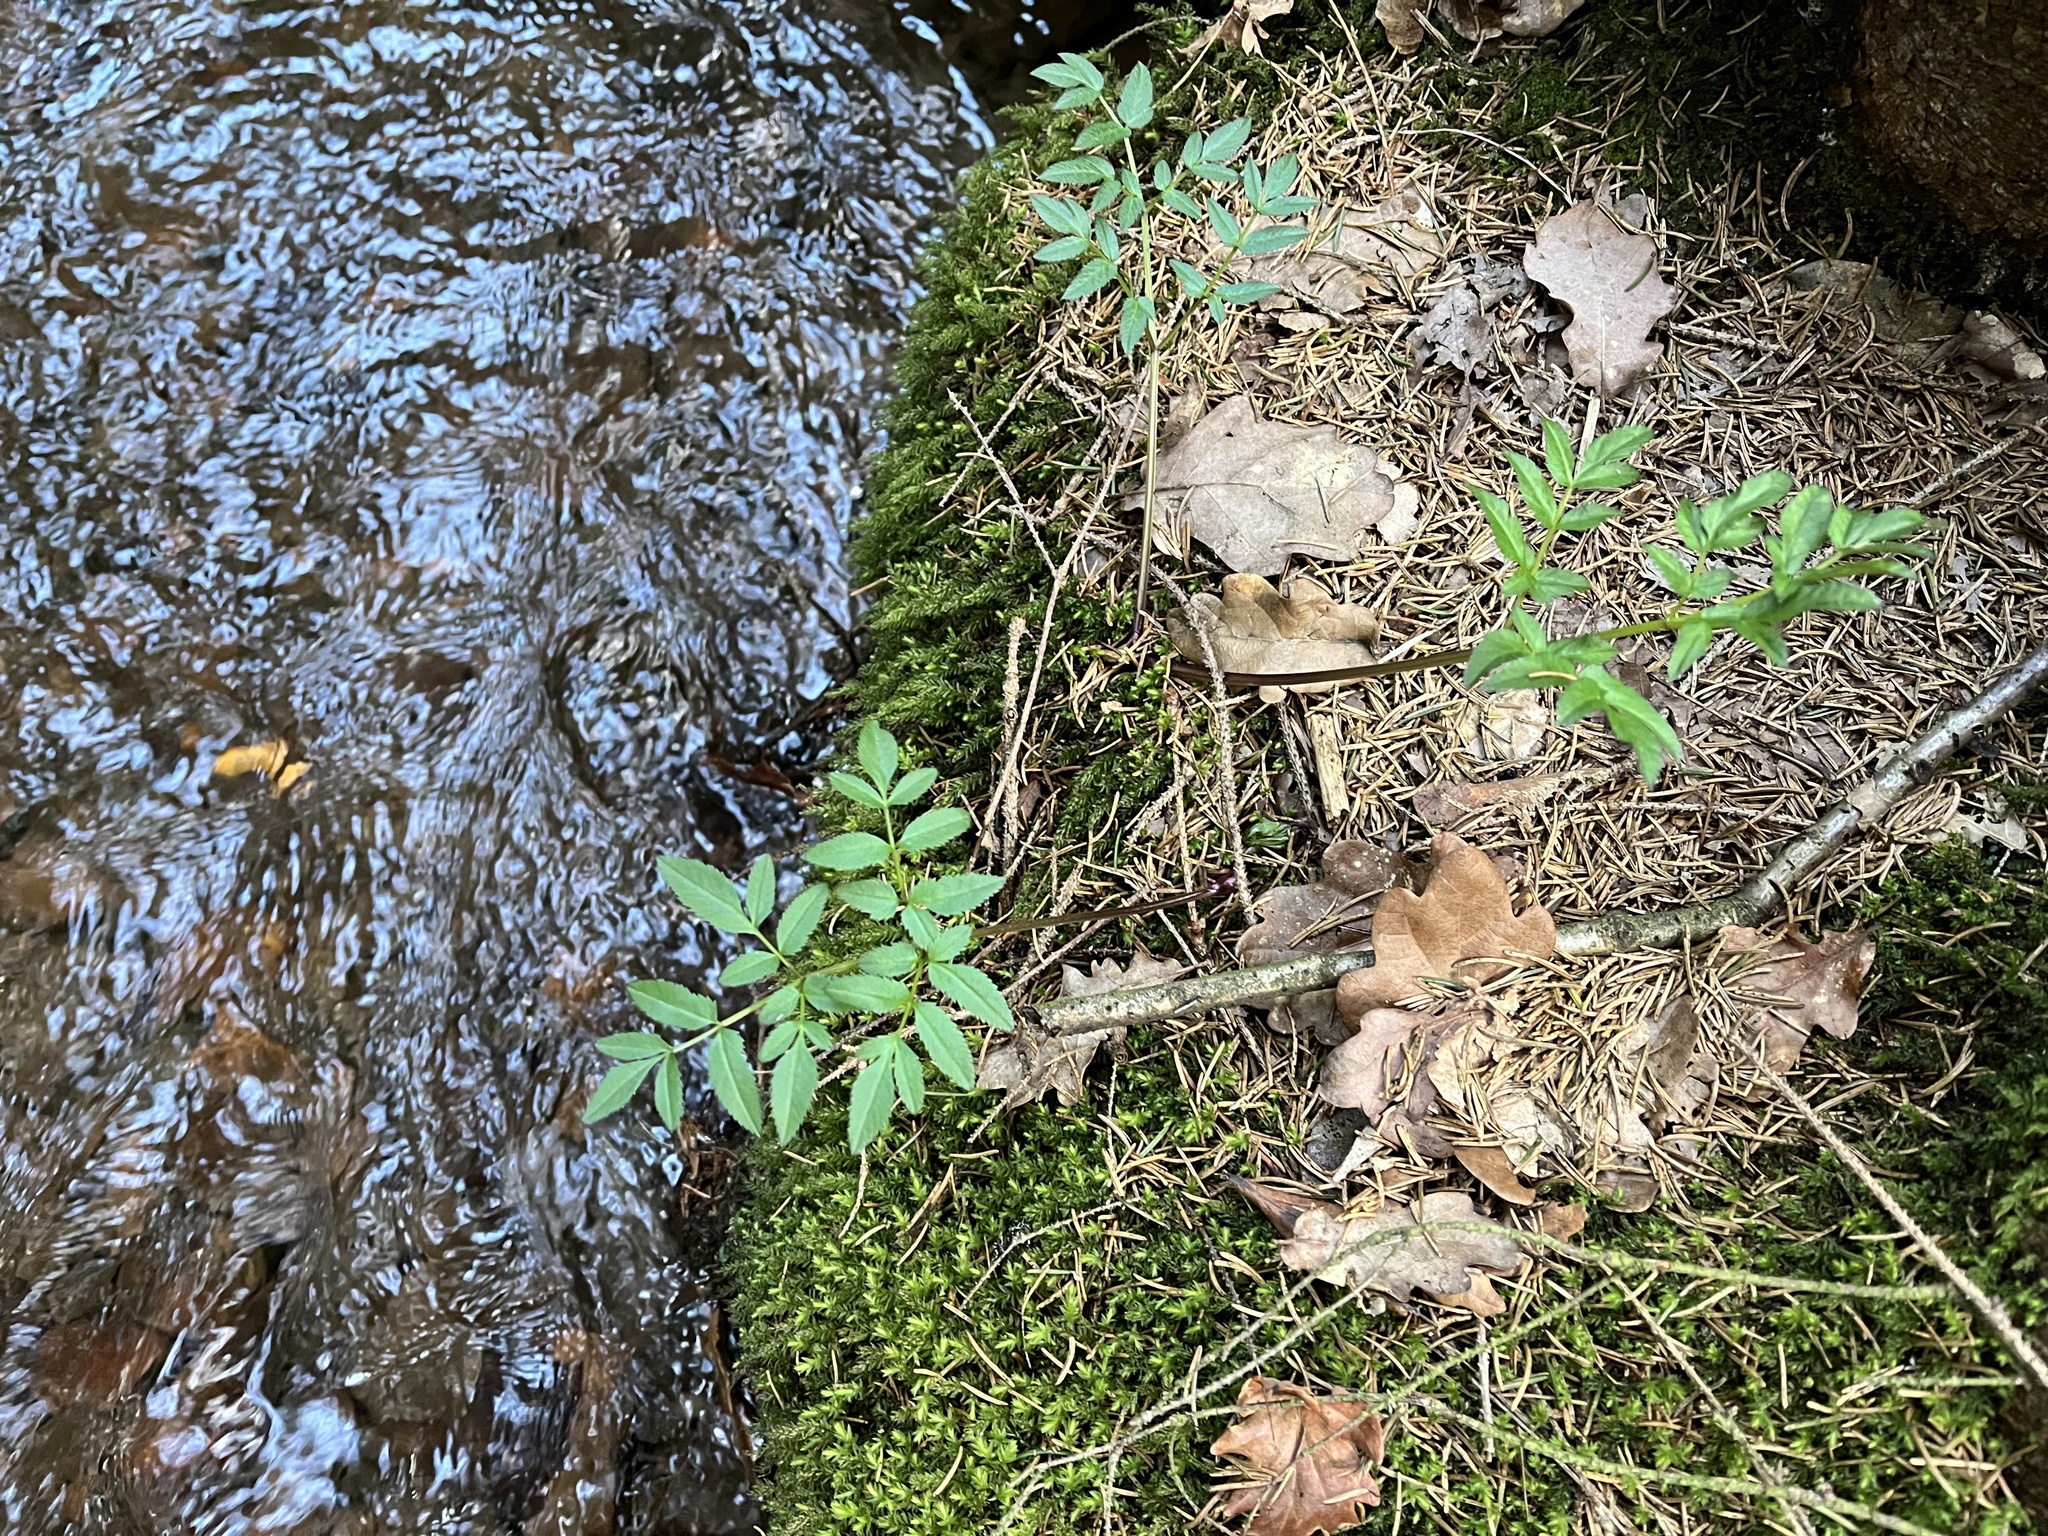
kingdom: Plantae
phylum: Tracheophyta
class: Magnoliopsida
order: Apiales
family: Apiaceae
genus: Angelica
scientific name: Angelica sylvestris
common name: Wild angelica
